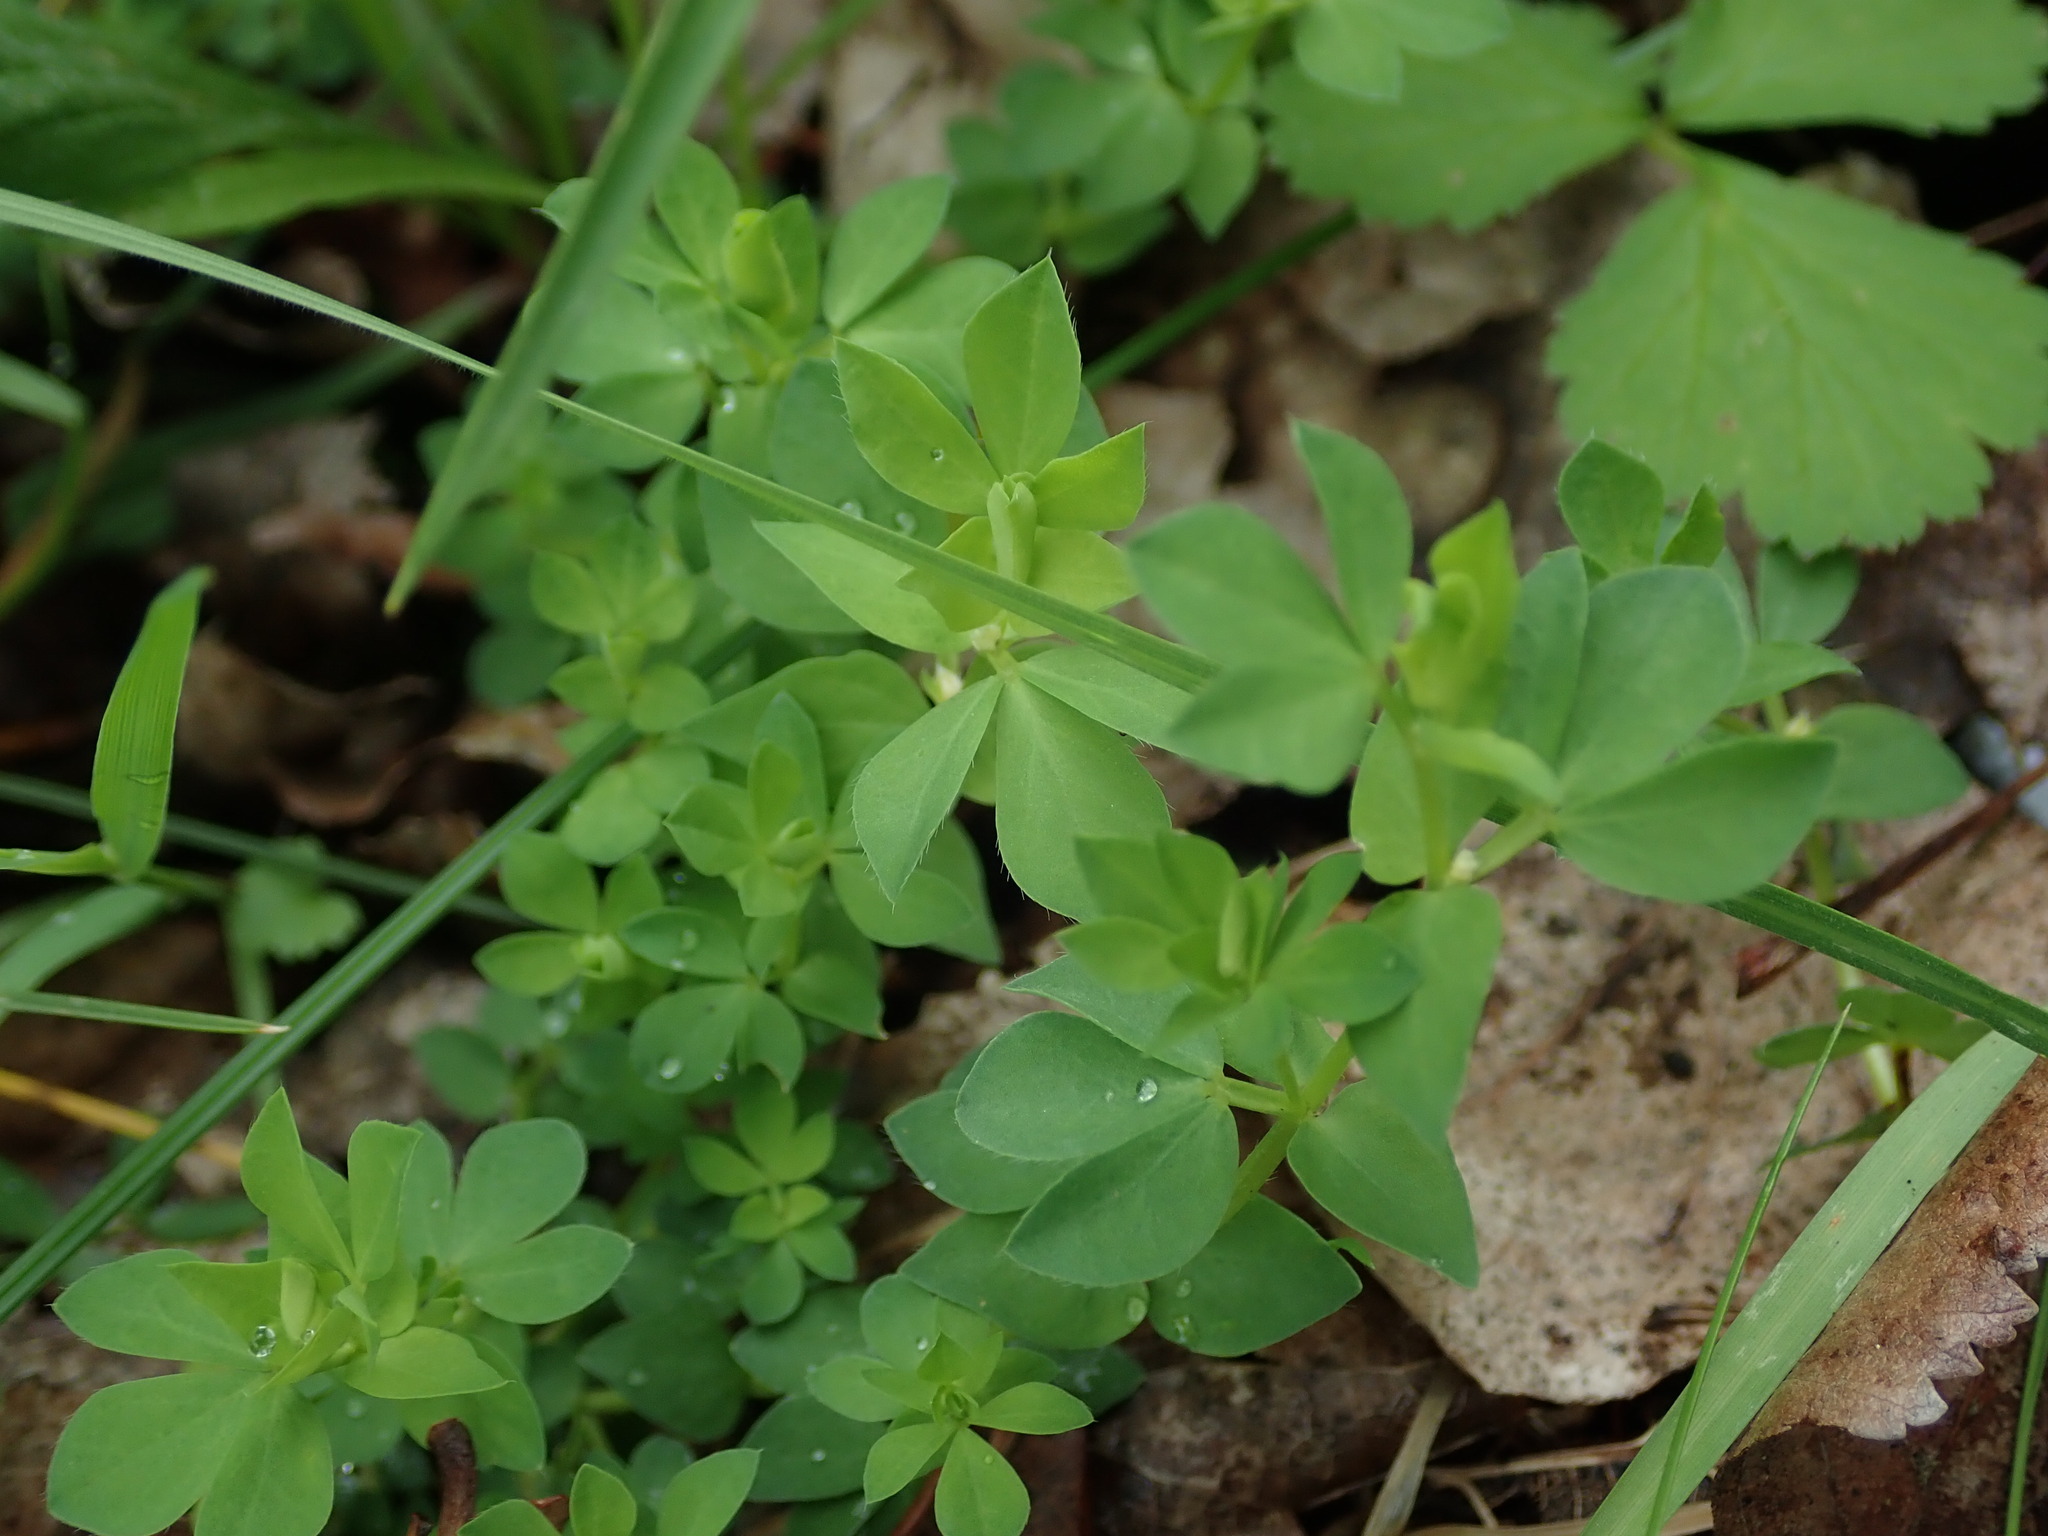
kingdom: Plantae
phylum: Tracheophyta
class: Magnoliopsida
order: Fabales
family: Fabaceae
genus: Lotus
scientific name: Lotus corniculatus
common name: Common bird's-foot-trefoil
